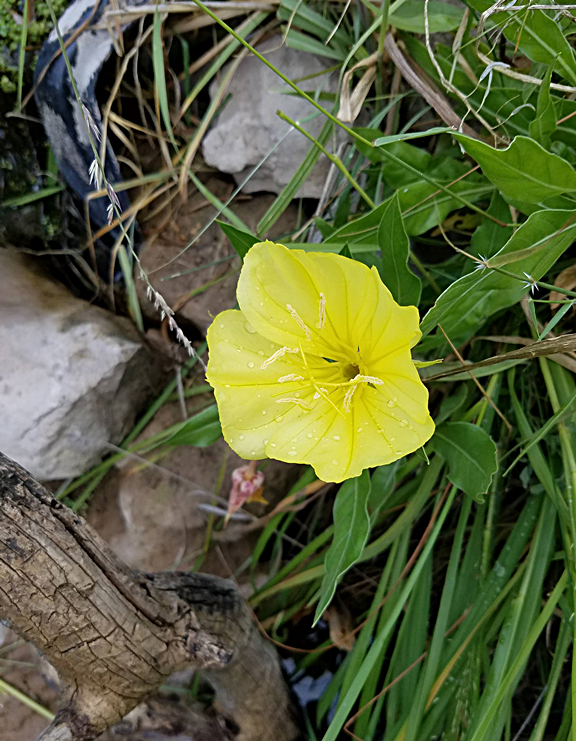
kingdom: Plantae
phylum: Tracheophyta
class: Magnoliopsida
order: Myrtales
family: Onagraceae
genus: Oenothera
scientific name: Oenothera macrocarpa
